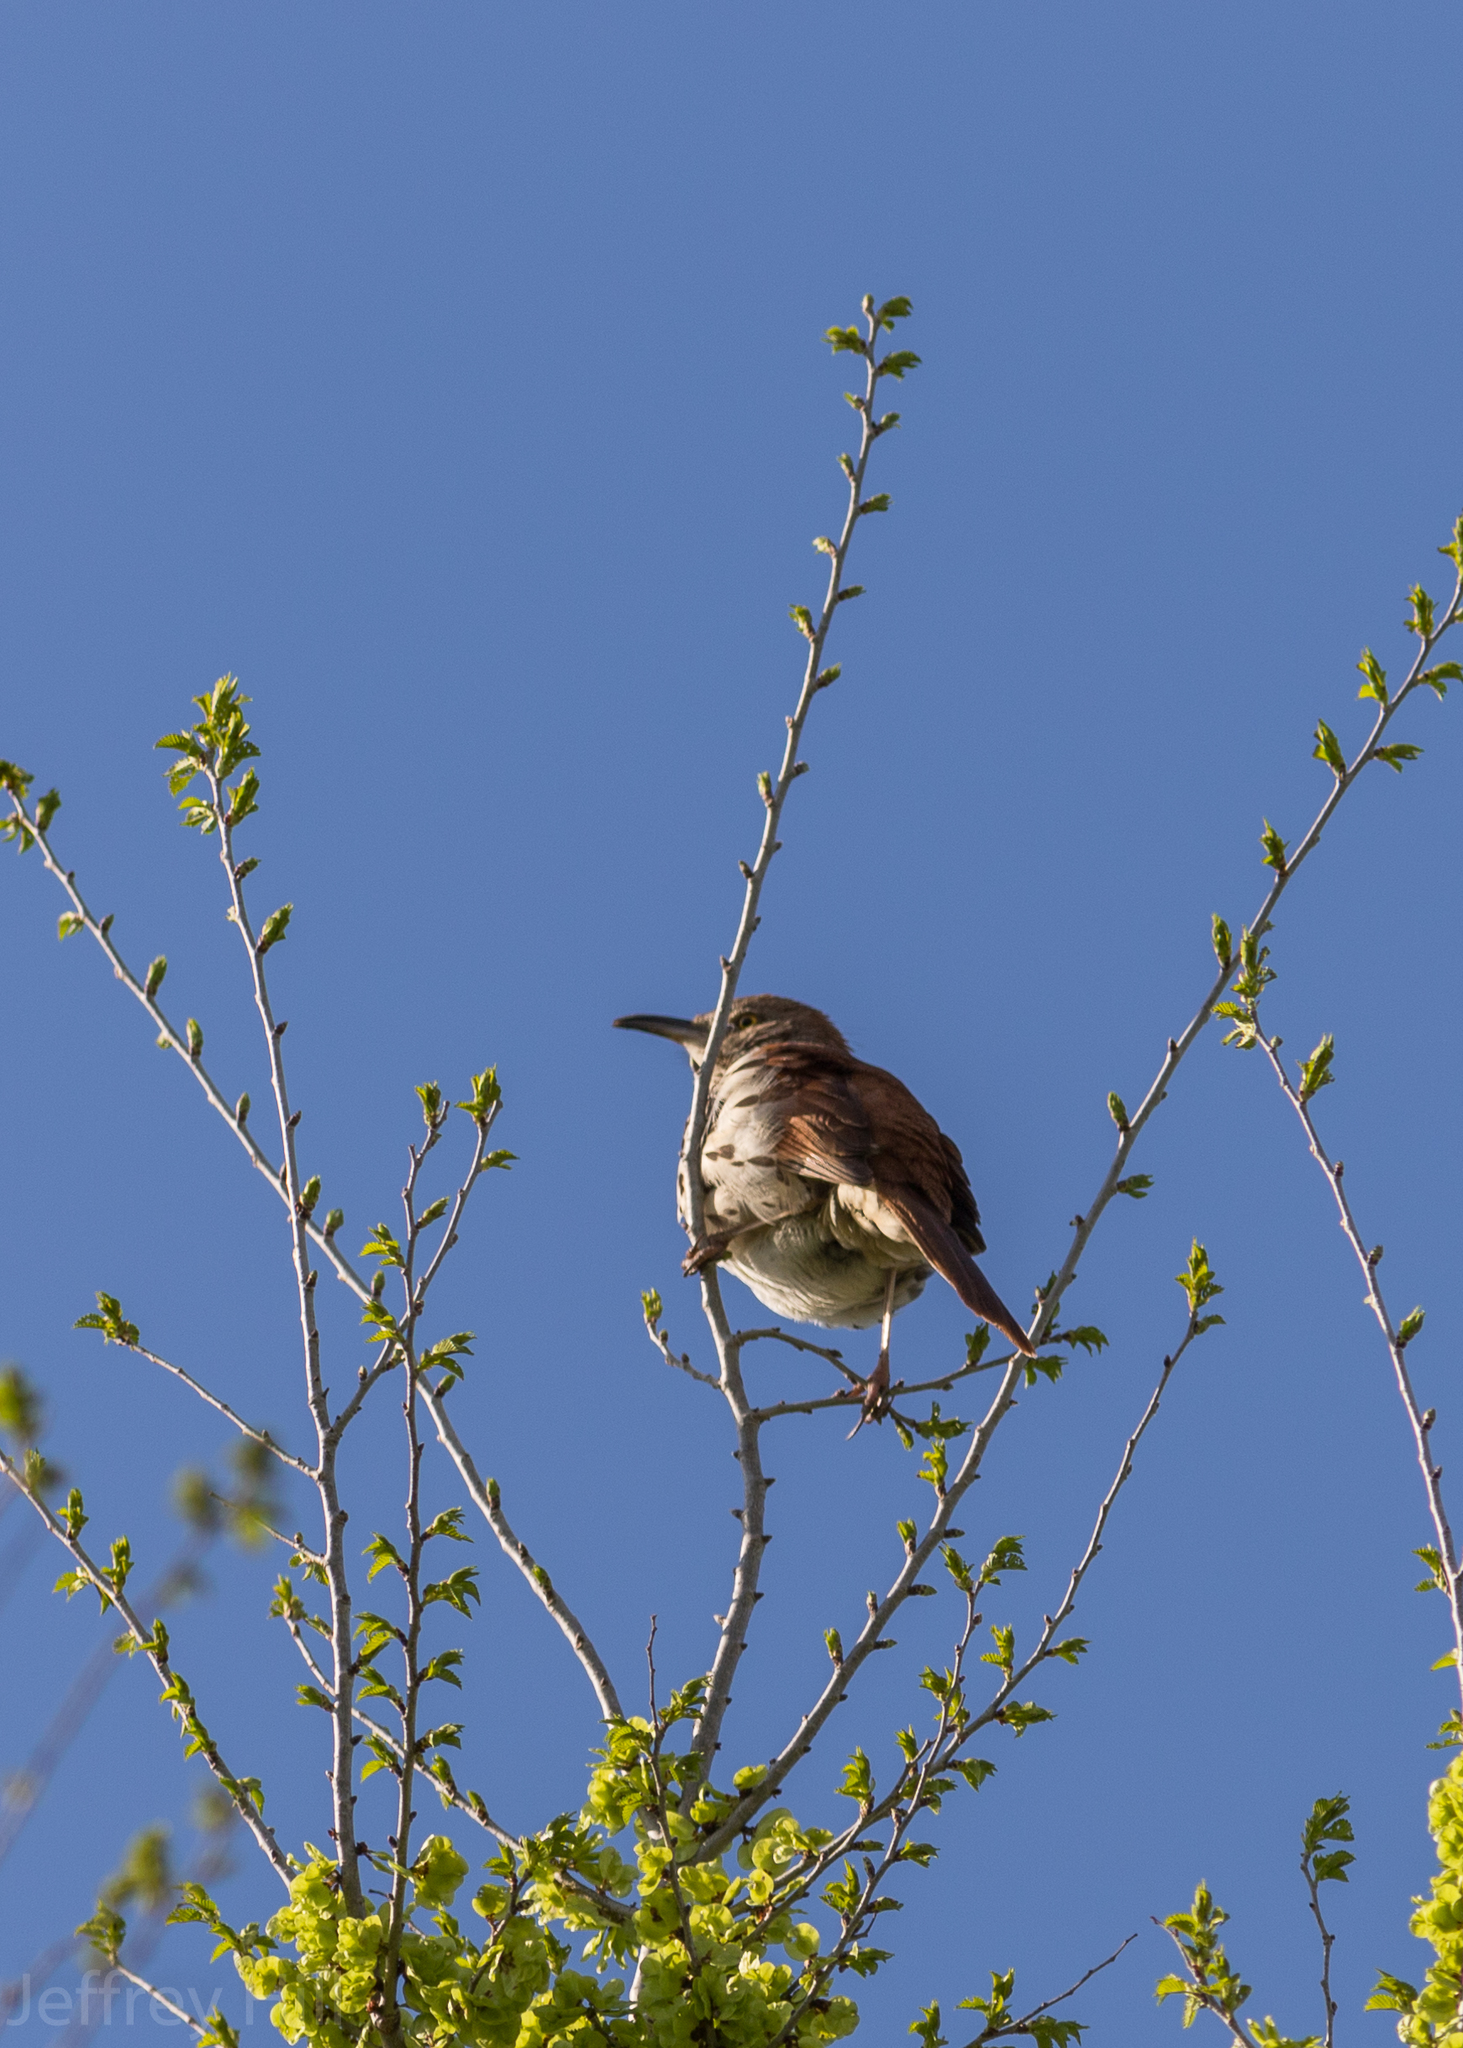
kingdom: Animalia
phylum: Chordata
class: Aves
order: Passeriformes
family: Mimidae
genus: Toxostoma
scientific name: Toxostoma rufum
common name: Brown thrasher
